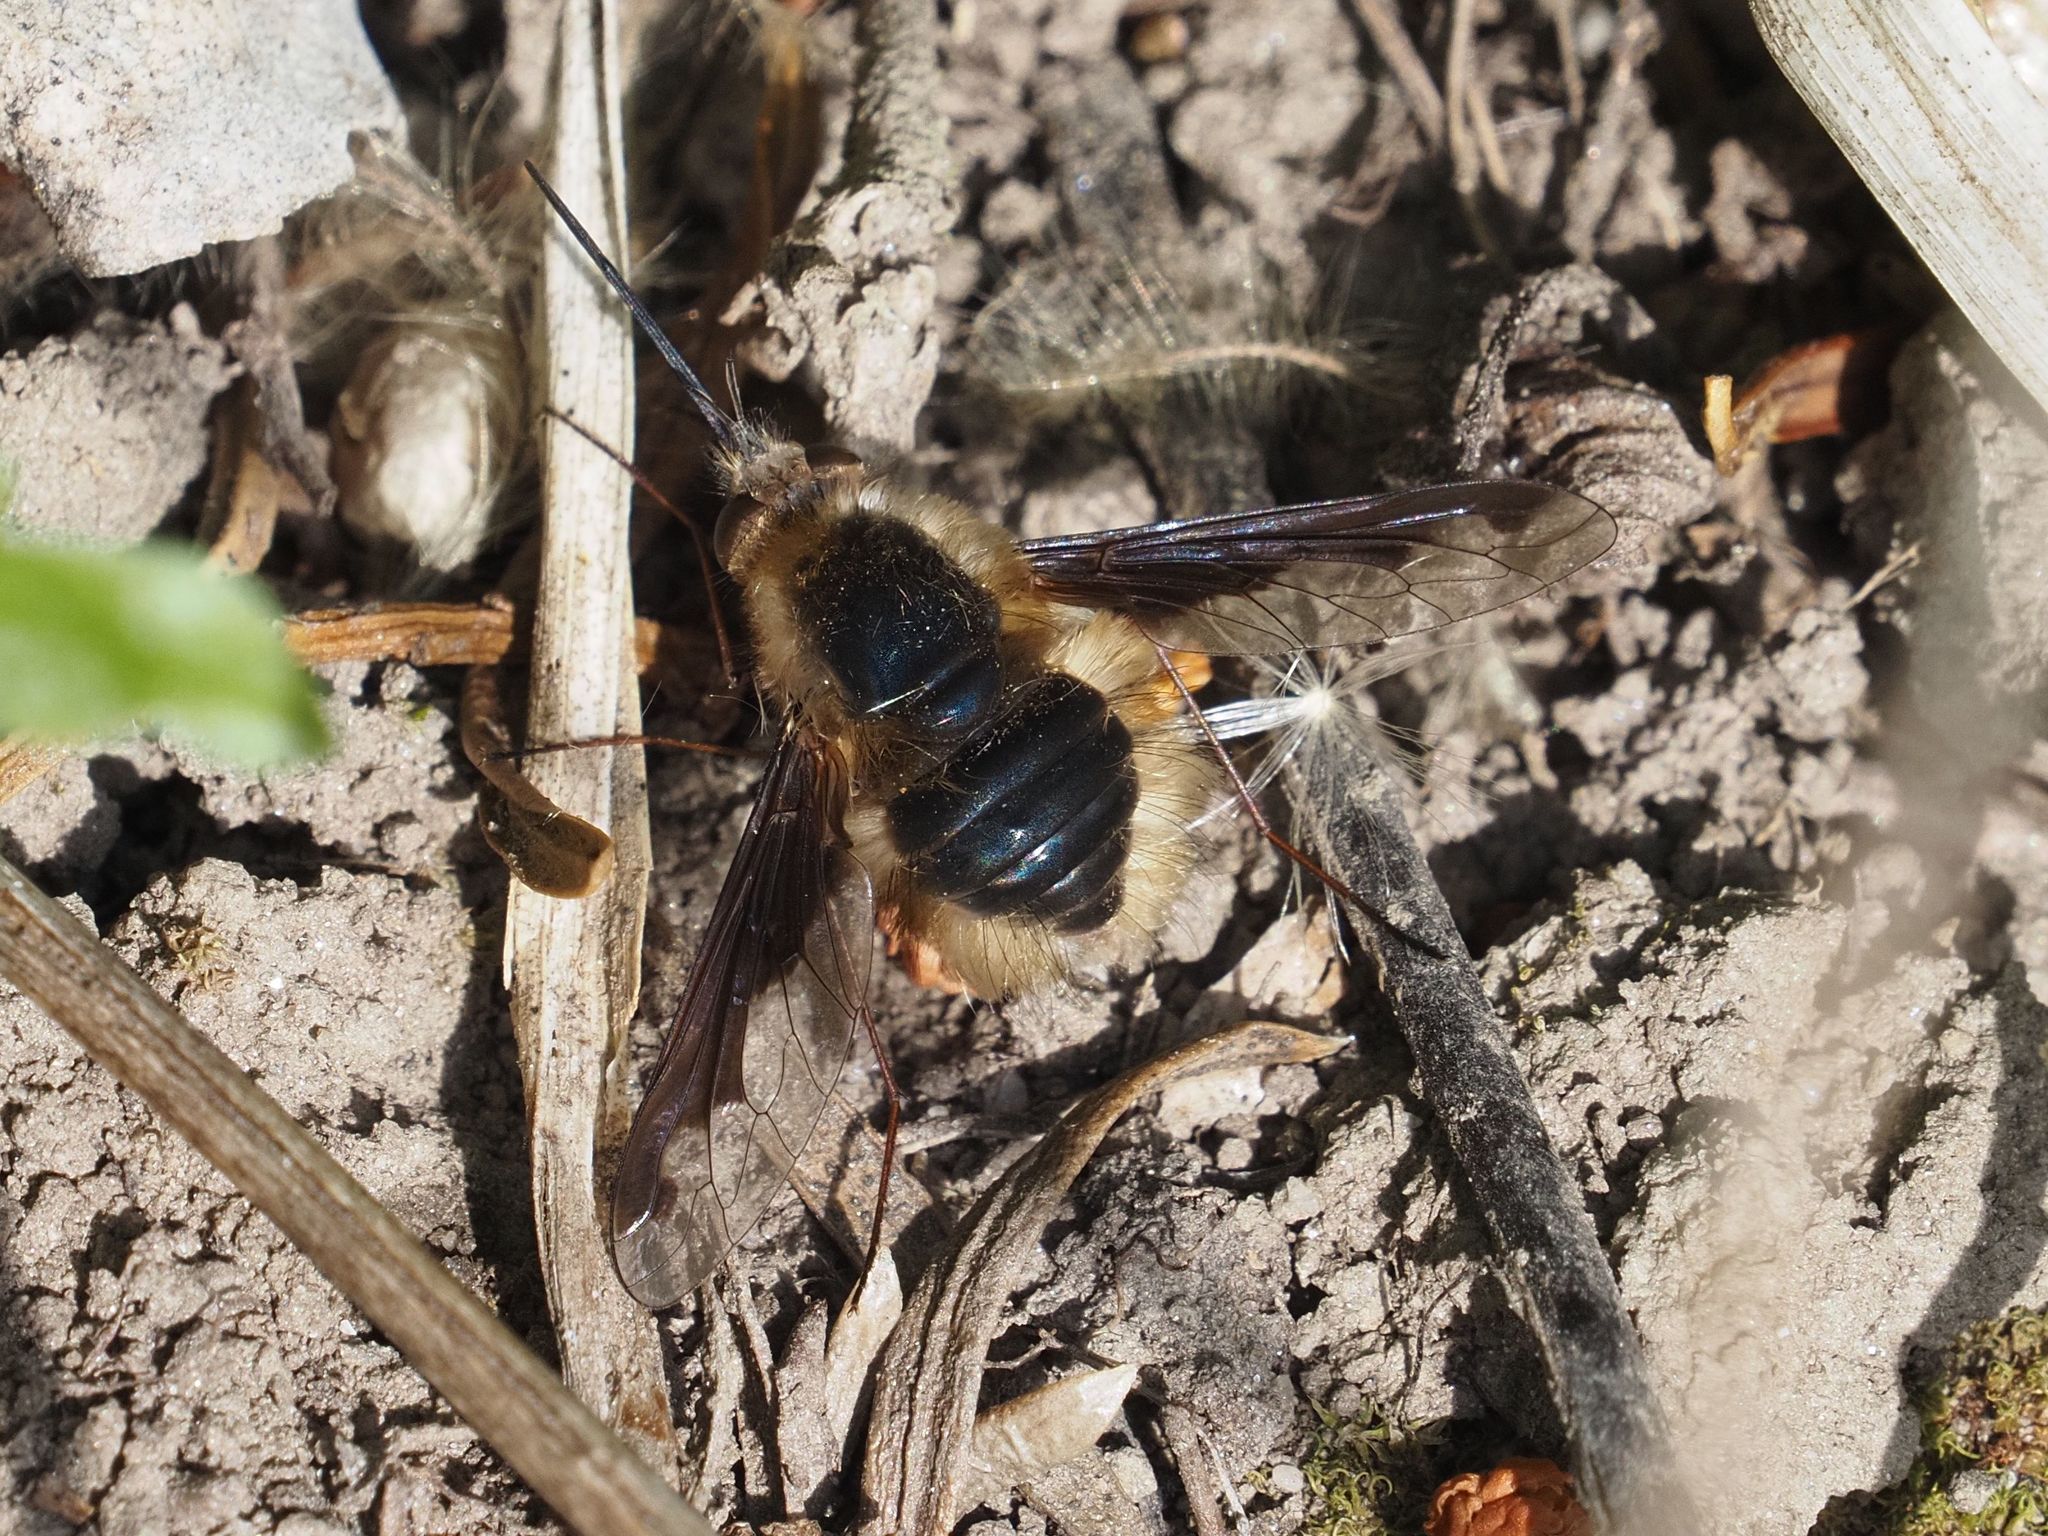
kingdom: Animalia
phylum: Arthropoda
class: Insecta
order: Diptera
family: Bombyliidae
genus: Bombylius
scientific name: Bombylius major
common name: Bee fly
